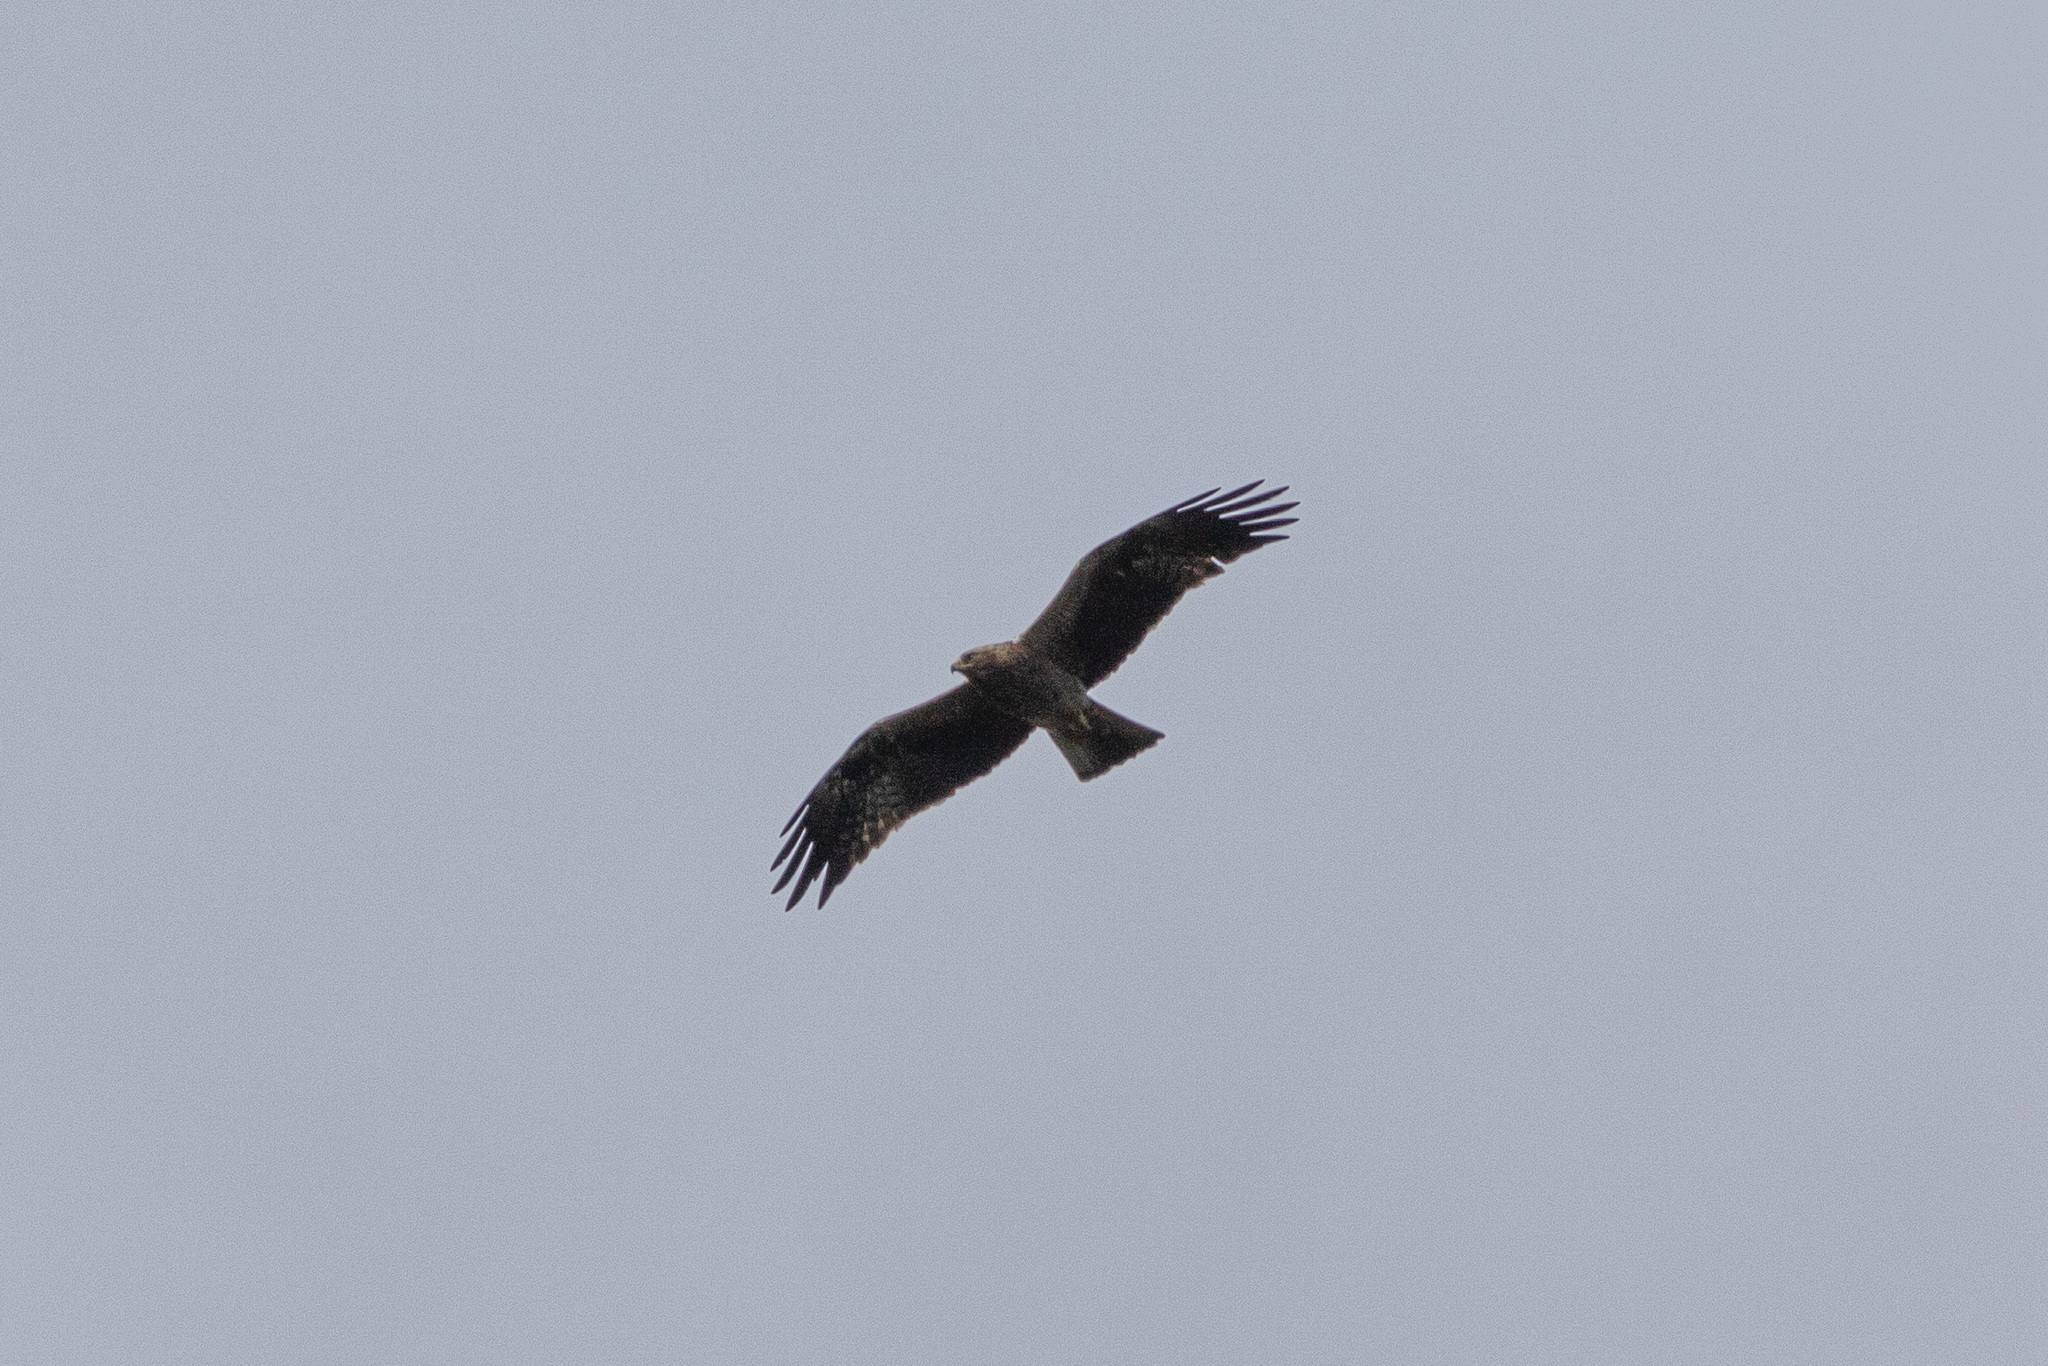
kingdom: Animalia
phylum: Chordata
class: Aves
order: Accipitriformes
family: Accipitridae
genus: Hieraaetus
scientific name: Hieraaetus pennatus
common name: Booted eagle
